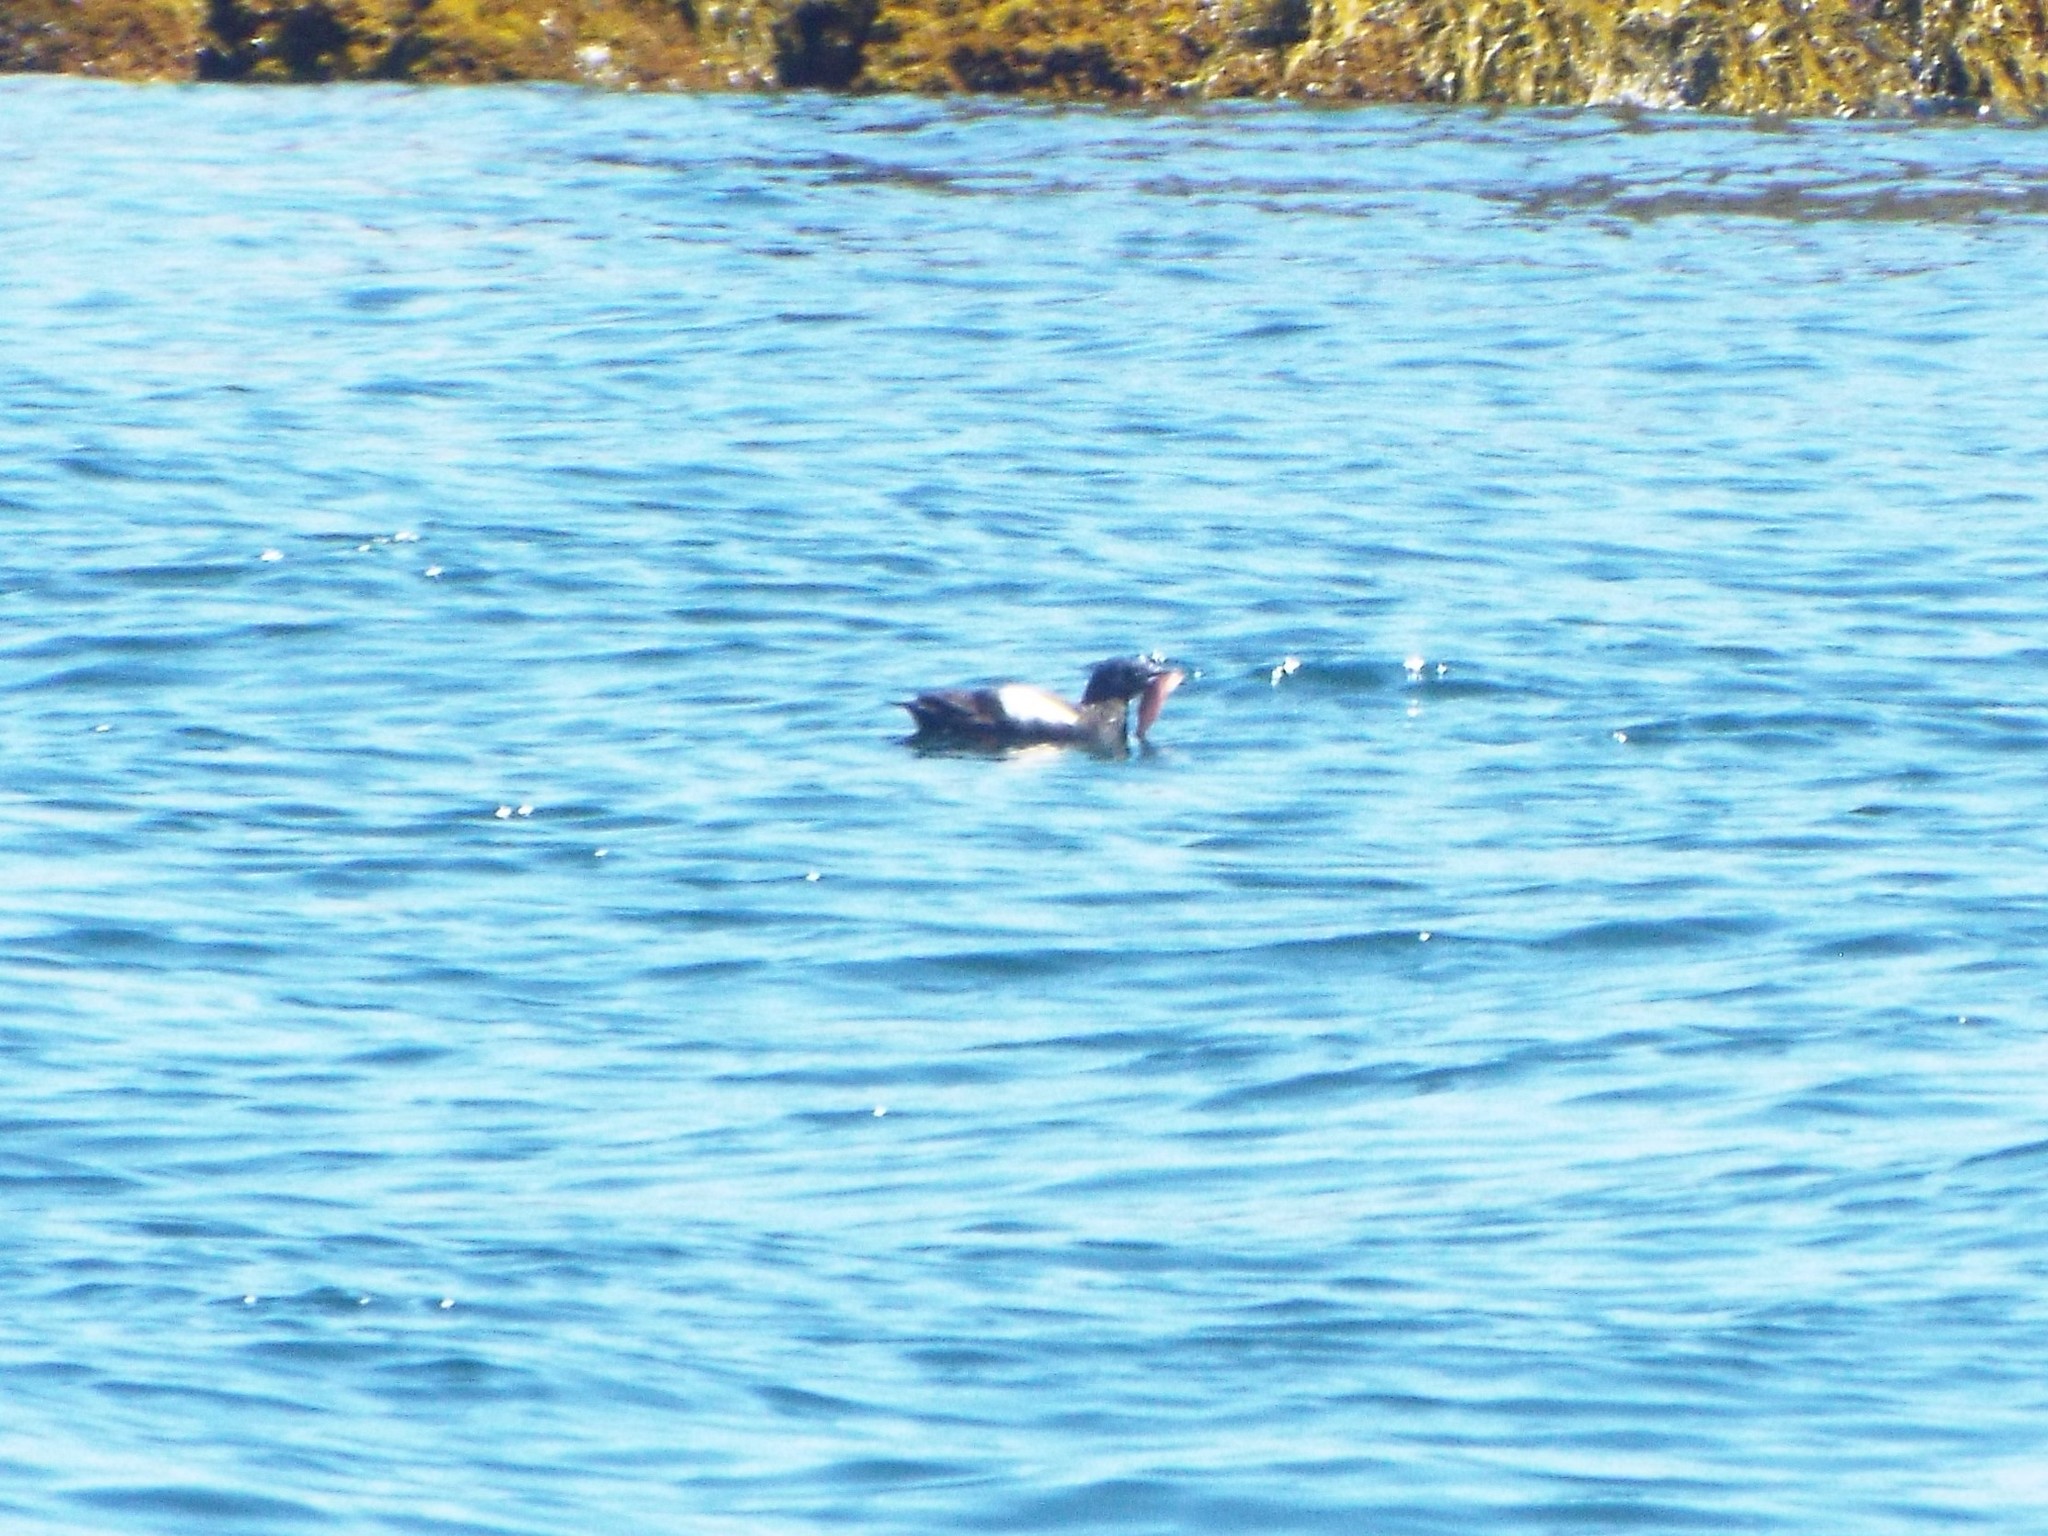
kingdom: Animalia
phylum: Chordata
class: Aves
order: Charadriiformes
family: Alcidae
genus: Cepphus
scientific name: Cepphus grylle
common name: Black guillemot
